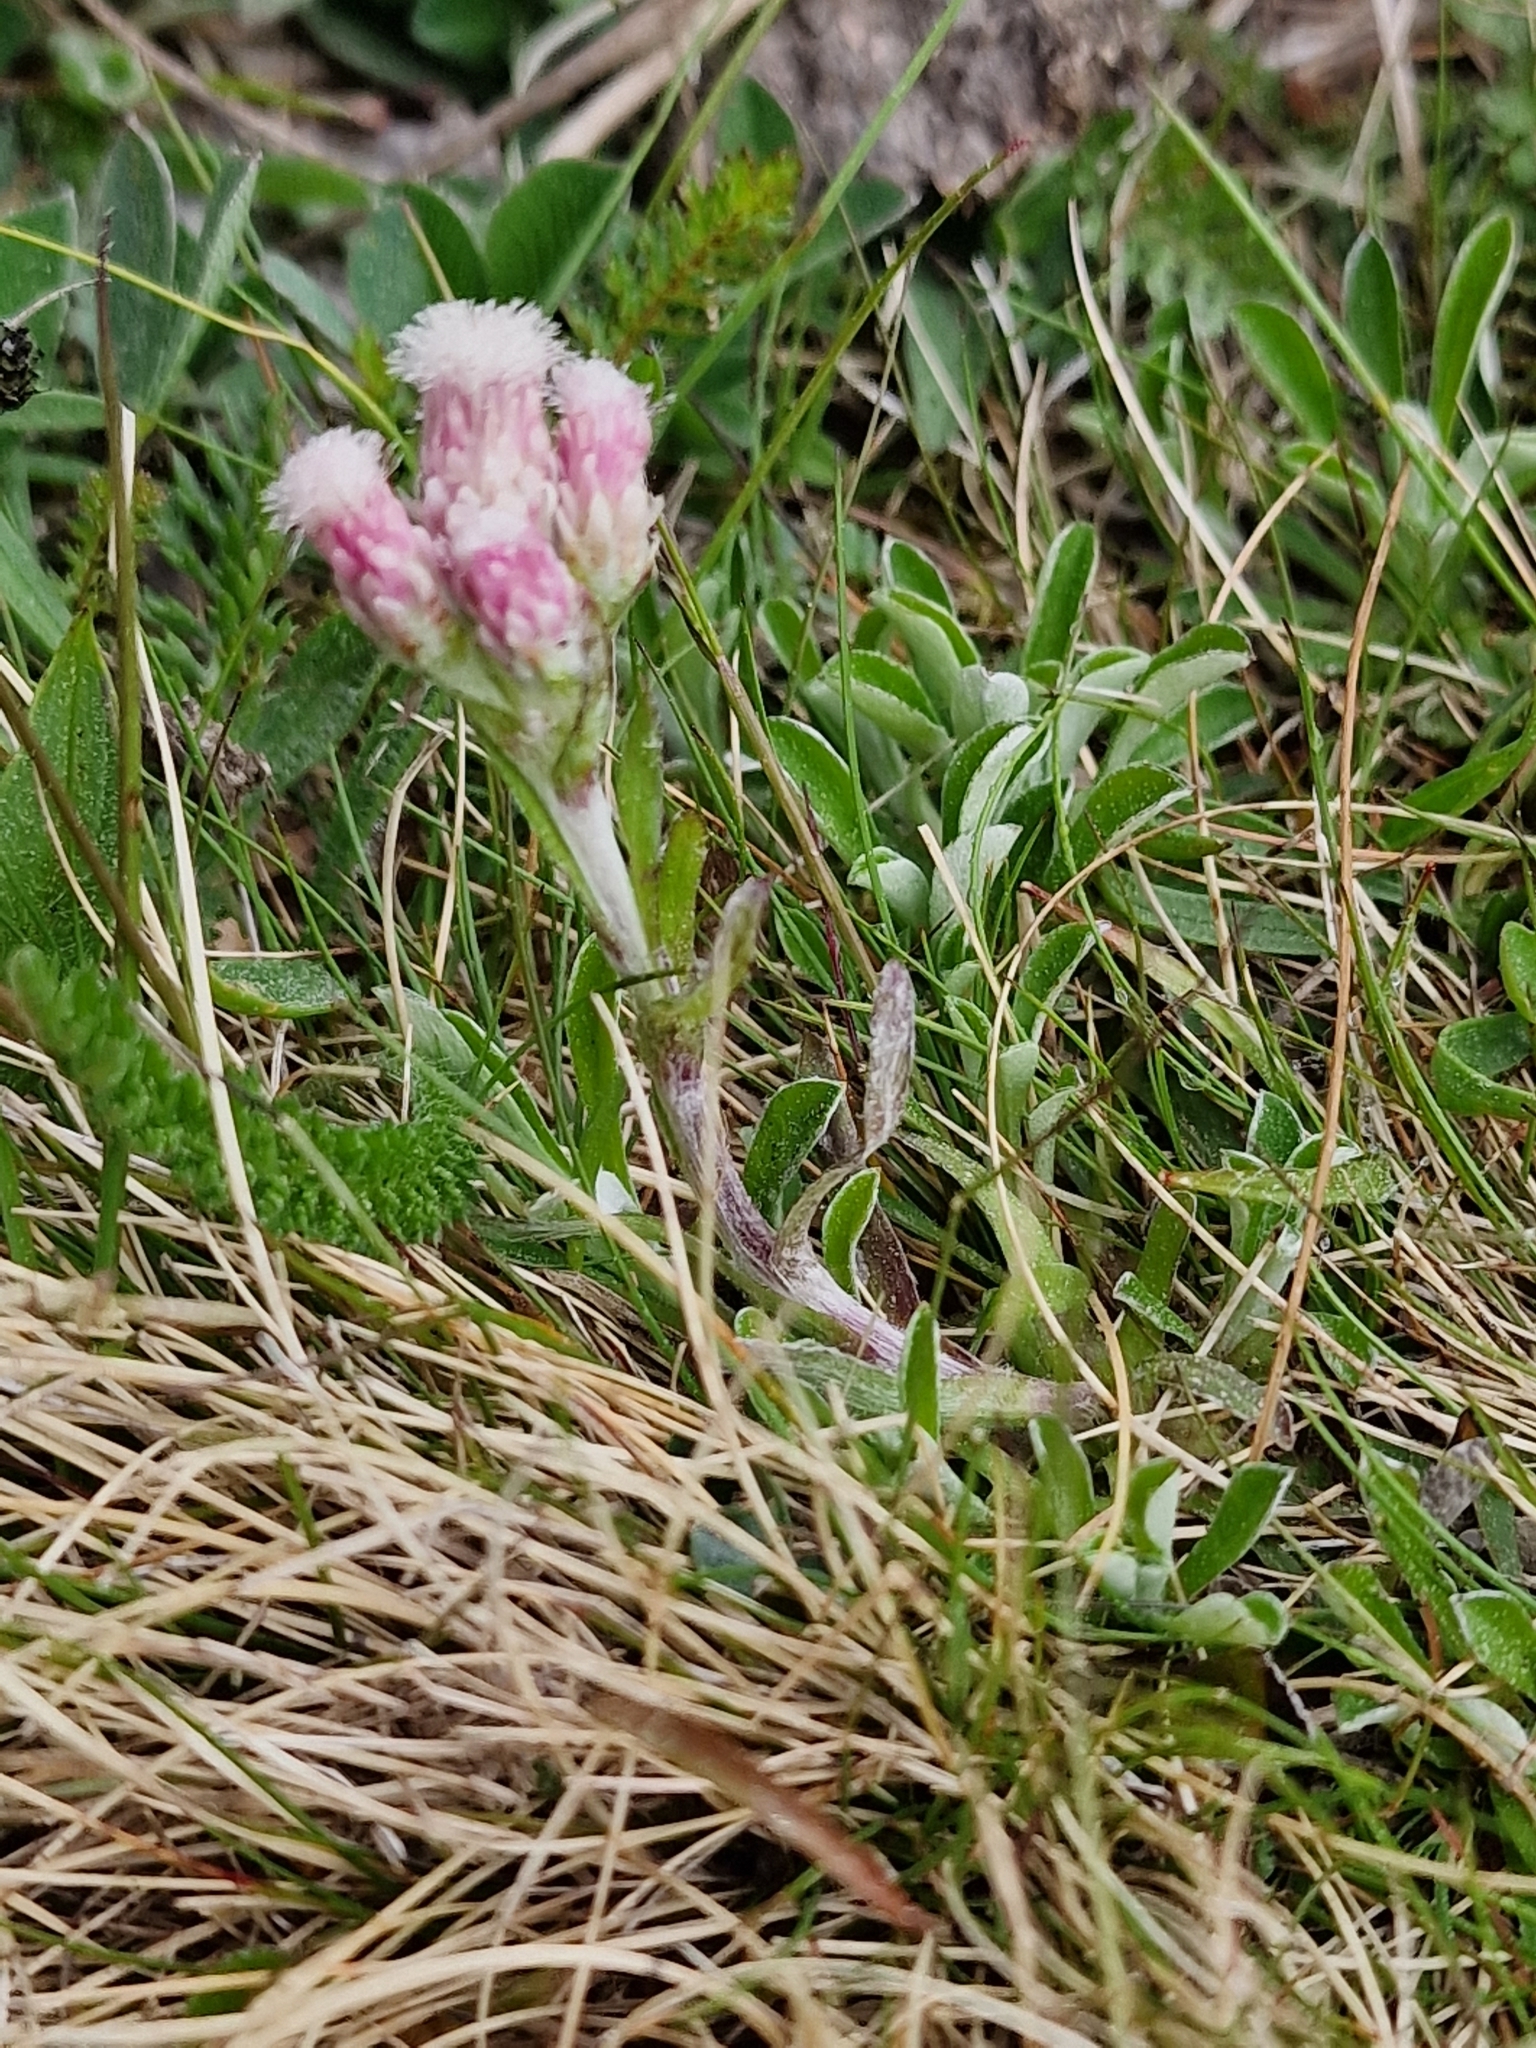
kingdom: Plantae
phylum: Tracheophyta
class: Magnoliopsida
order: Asterales
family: Asteraceae
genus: Antennaria
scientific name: Antennaria dioica
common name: Mountain everlasting
